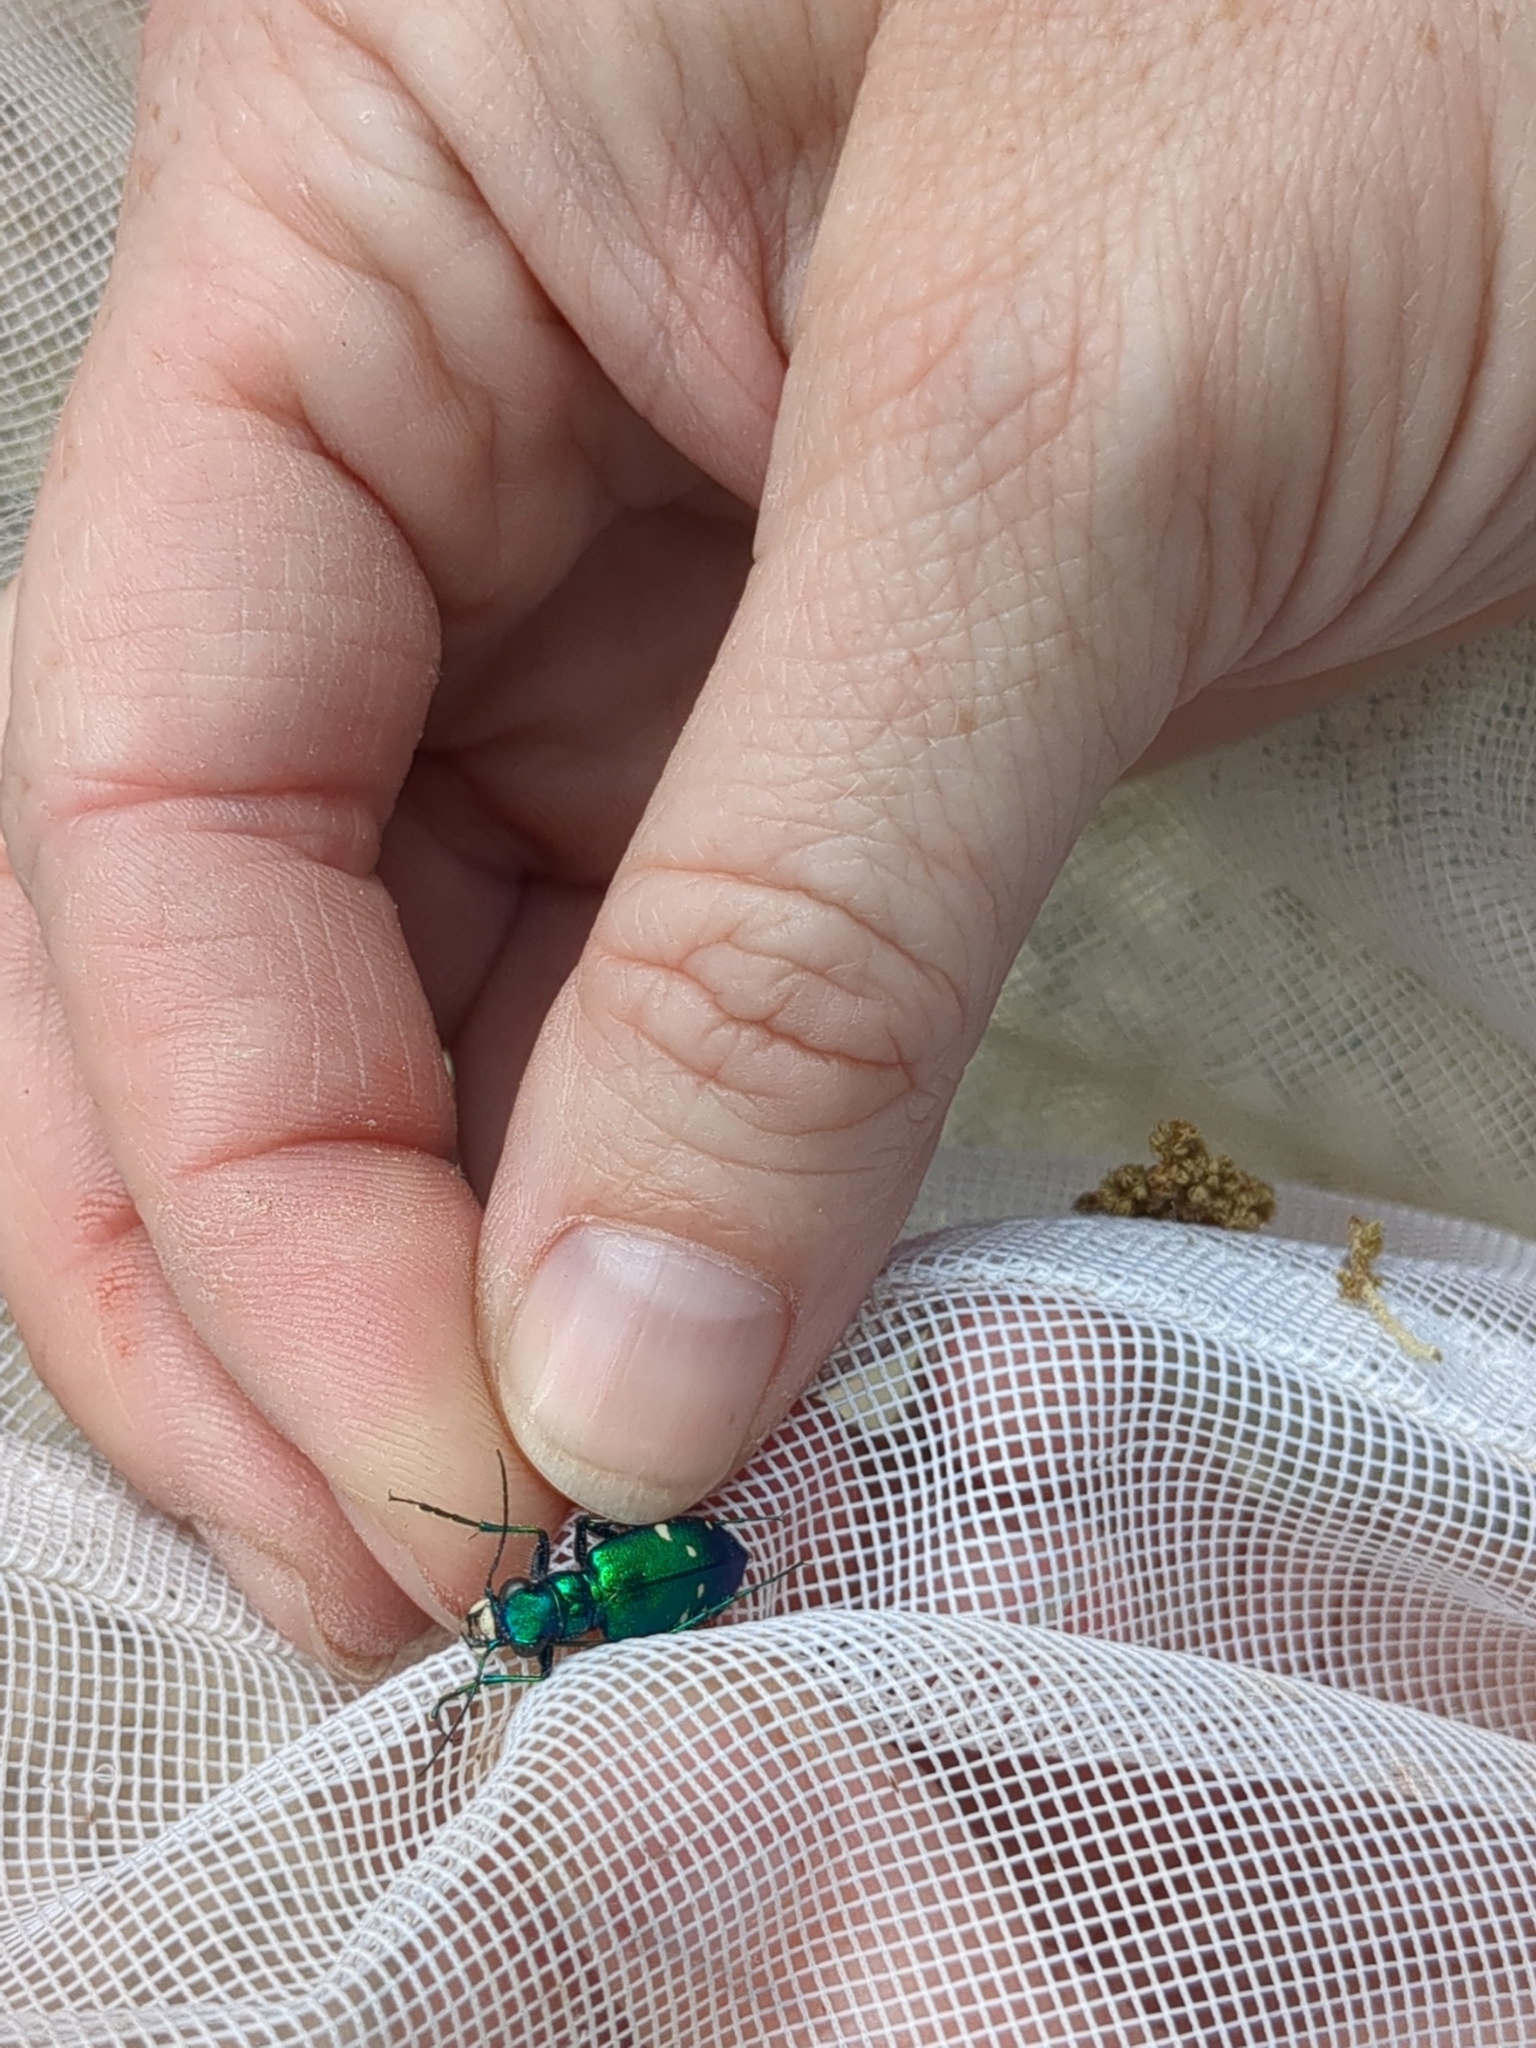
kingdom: Animalia
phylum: Arthropoda
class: Insecta
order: Coleoptera
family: Carabidae
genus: Cicindela
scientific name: Cicindela sexguttata
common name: Six-spotted tiger beetle
